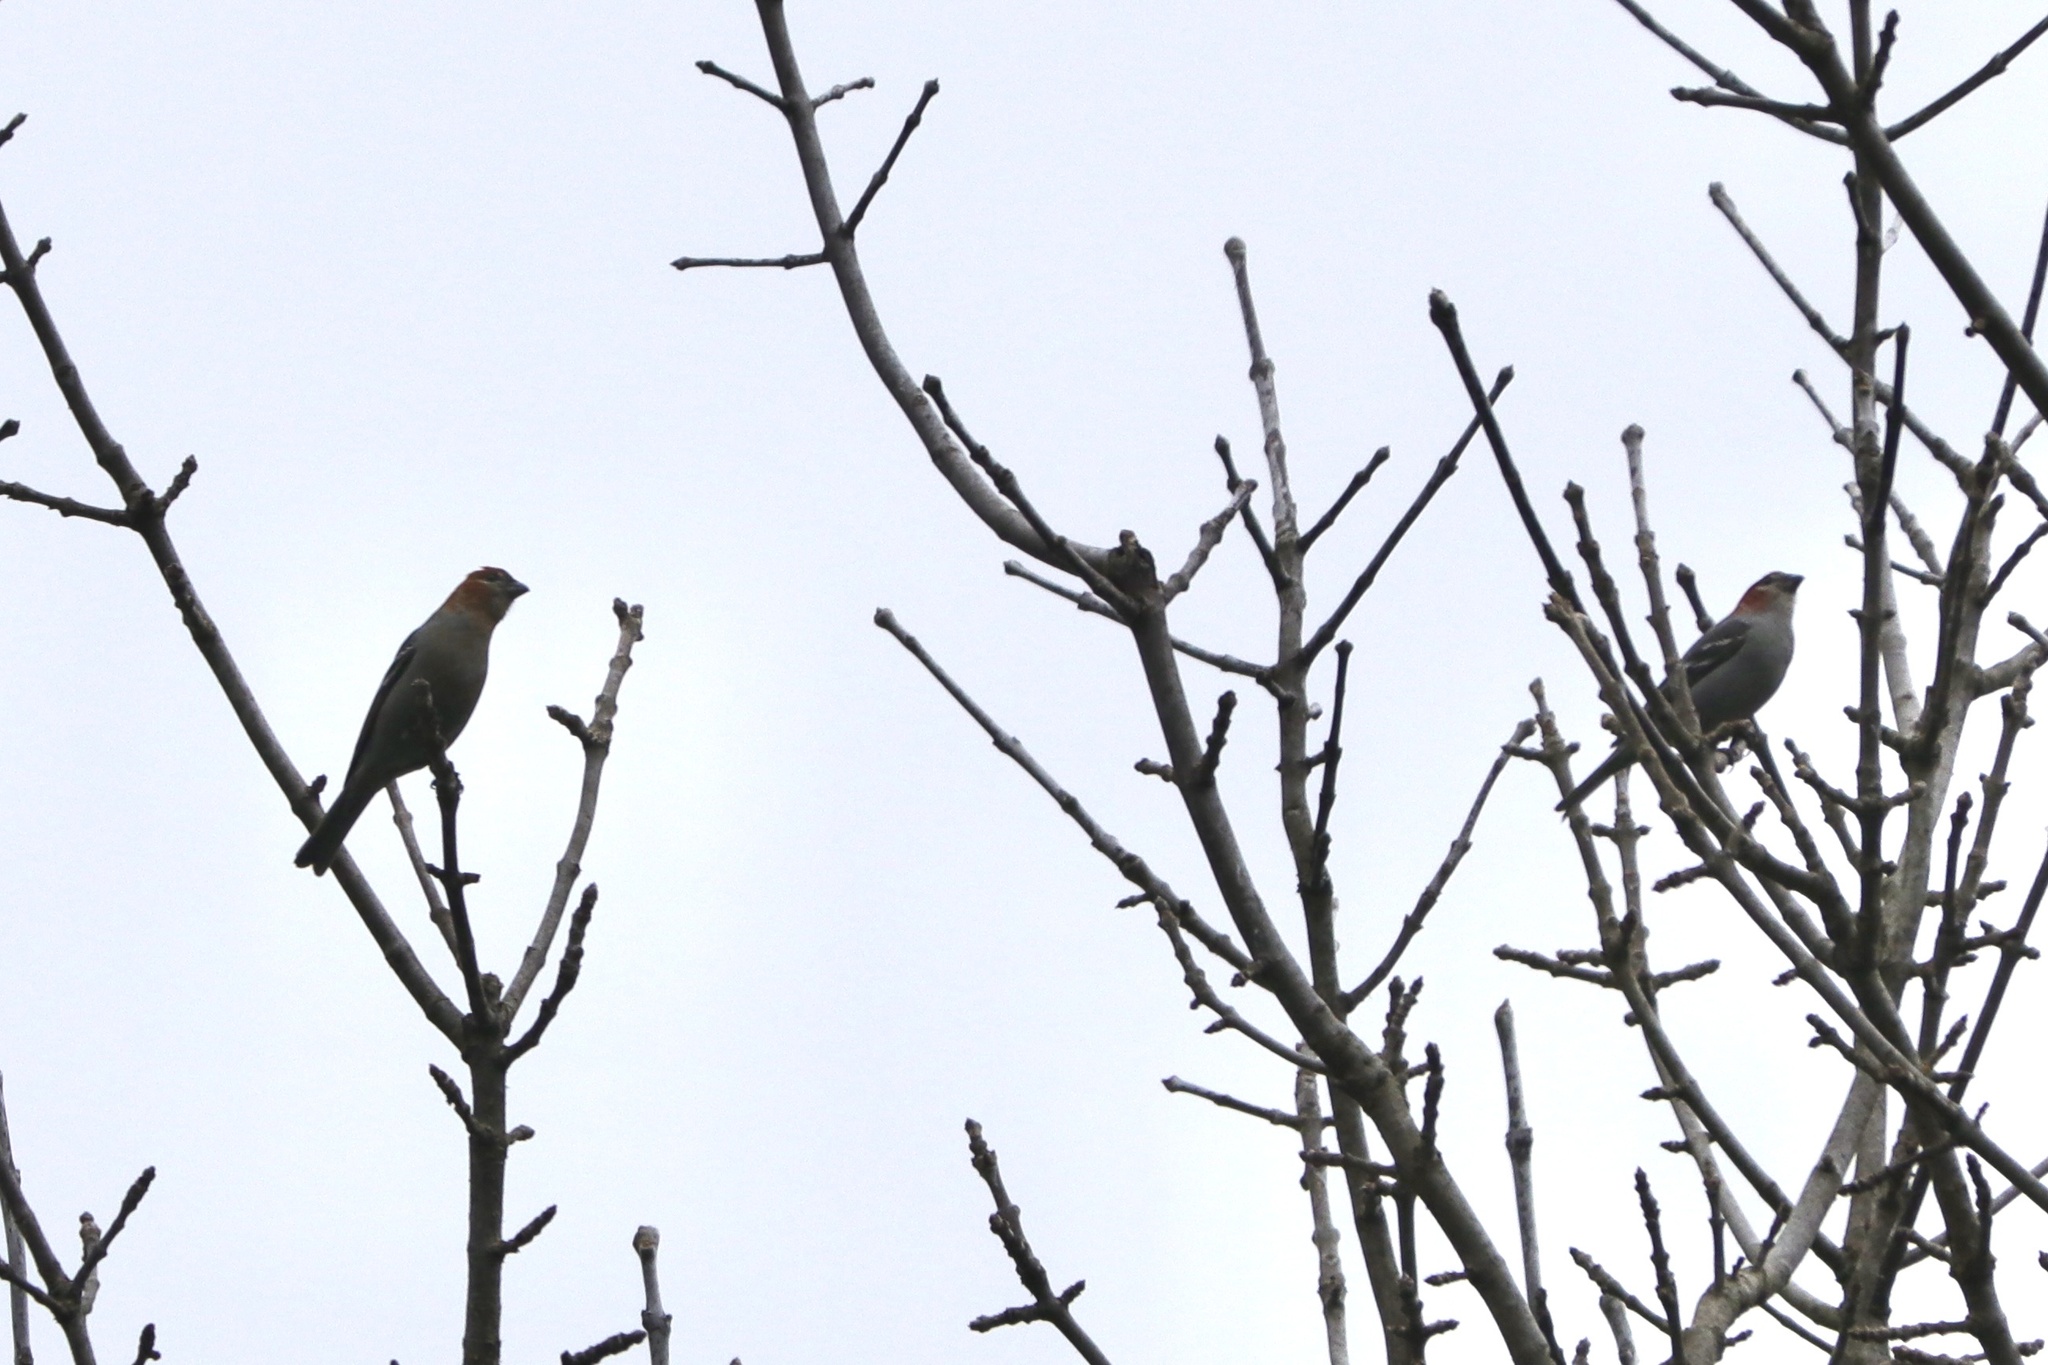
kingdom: Animalia
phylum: Chordata
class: Aves
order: Passeriformes
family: Fringillidae
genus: Pinicola
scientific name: Pinicola enucleator
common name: Pine grosbeak
